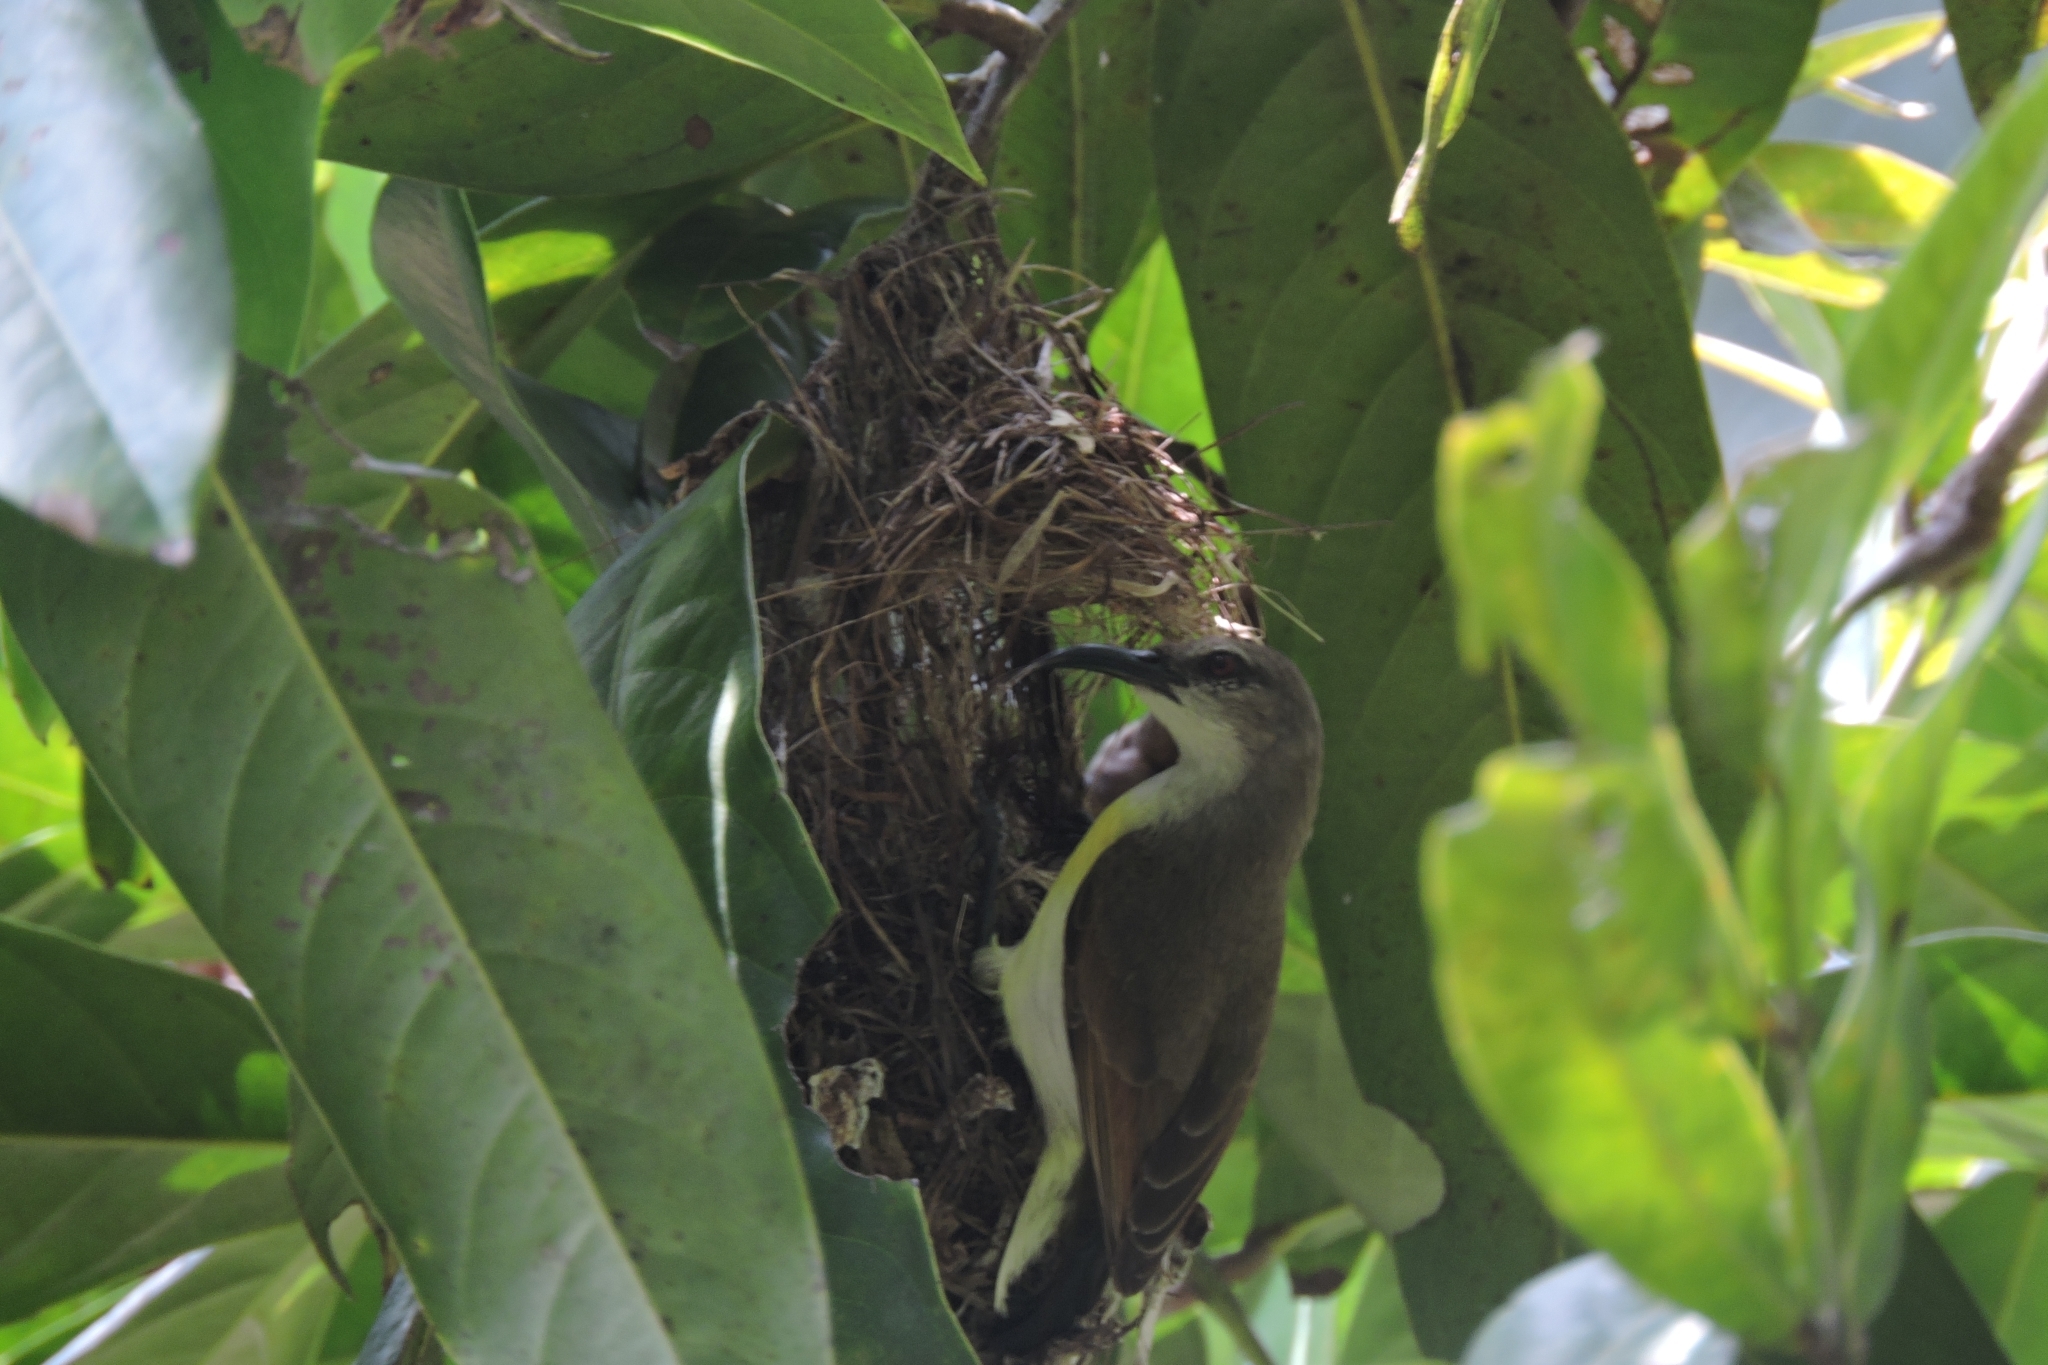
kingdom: Animalia
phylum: Chordata
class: Aves
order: Passeriformes
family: Nectariniidae
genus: Leptocoma
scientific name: Leptocoma zeylonica
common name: Purple-rumped sunbird
